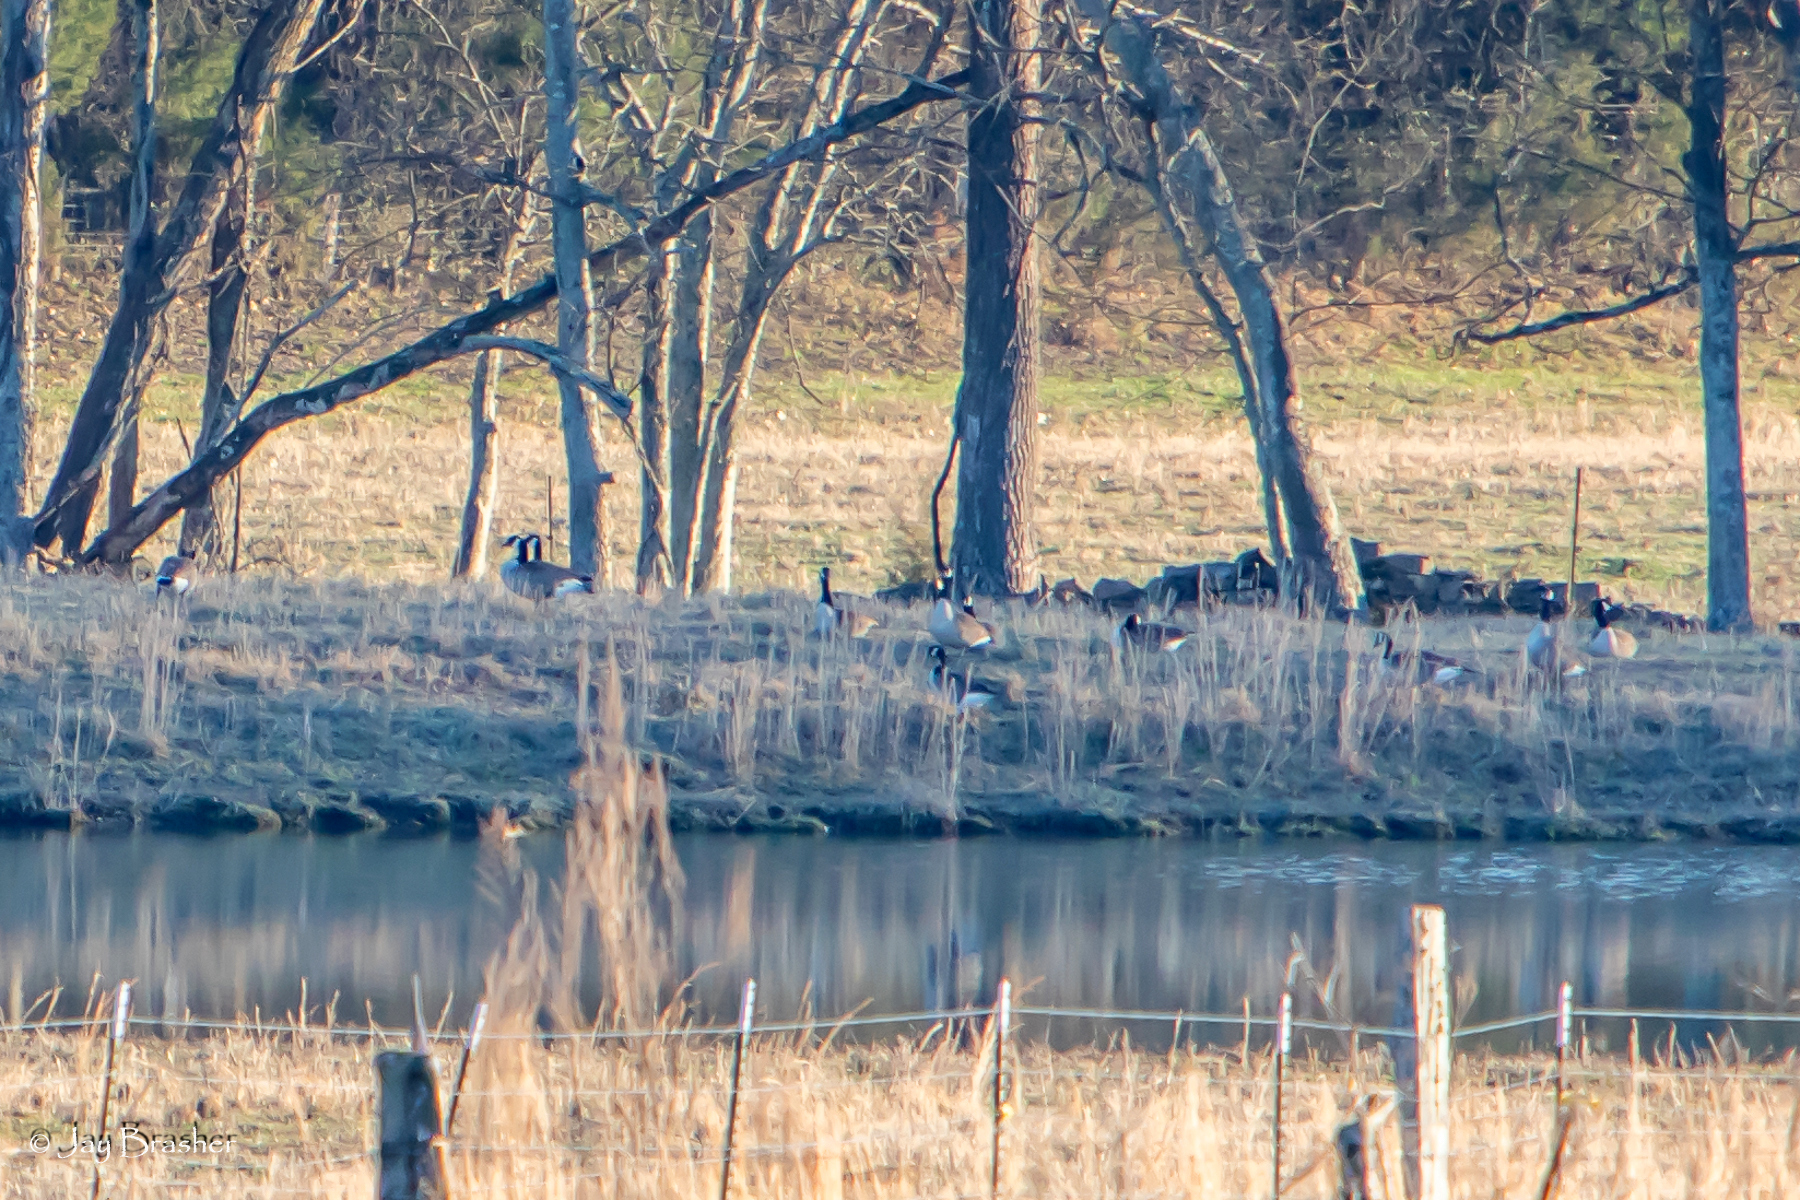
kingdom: Animalia
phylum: Chordata
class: Aves
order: Anseriformes
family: Anatidae
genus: Branta
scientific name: Branta canadensis
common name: Canada goose
